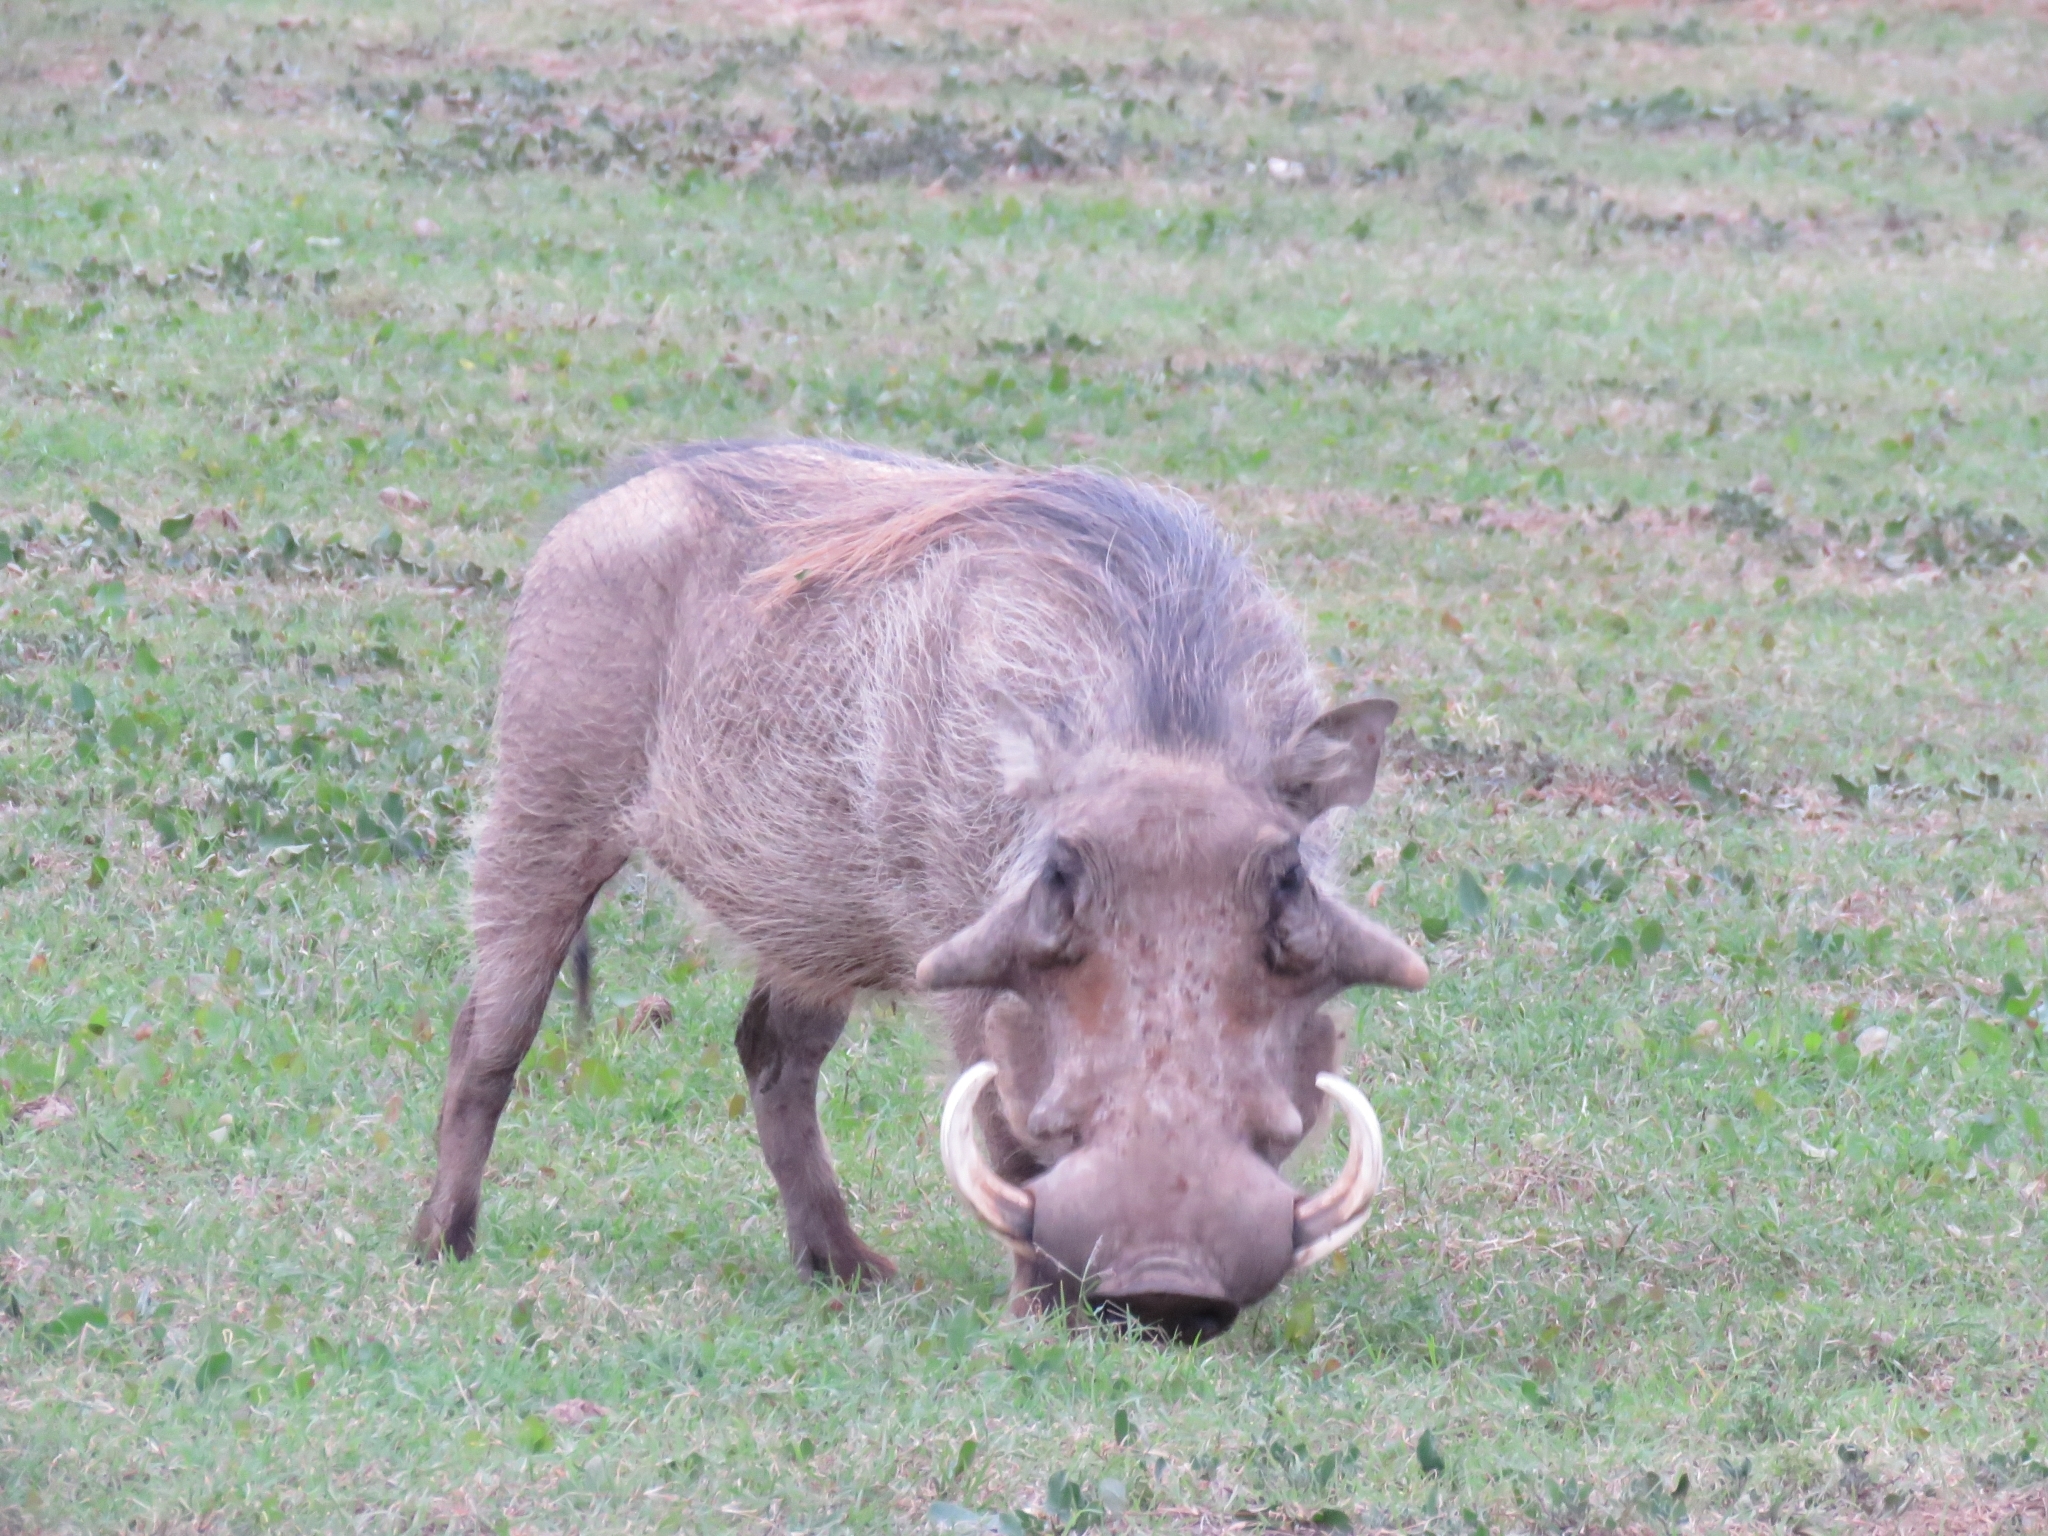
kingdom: Animalia
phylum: Chordata
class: Mammalia
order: Artiodactyla
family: Suidae
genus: Phacochoerus
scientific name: Phacochoerus africanus
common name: Common warthog
